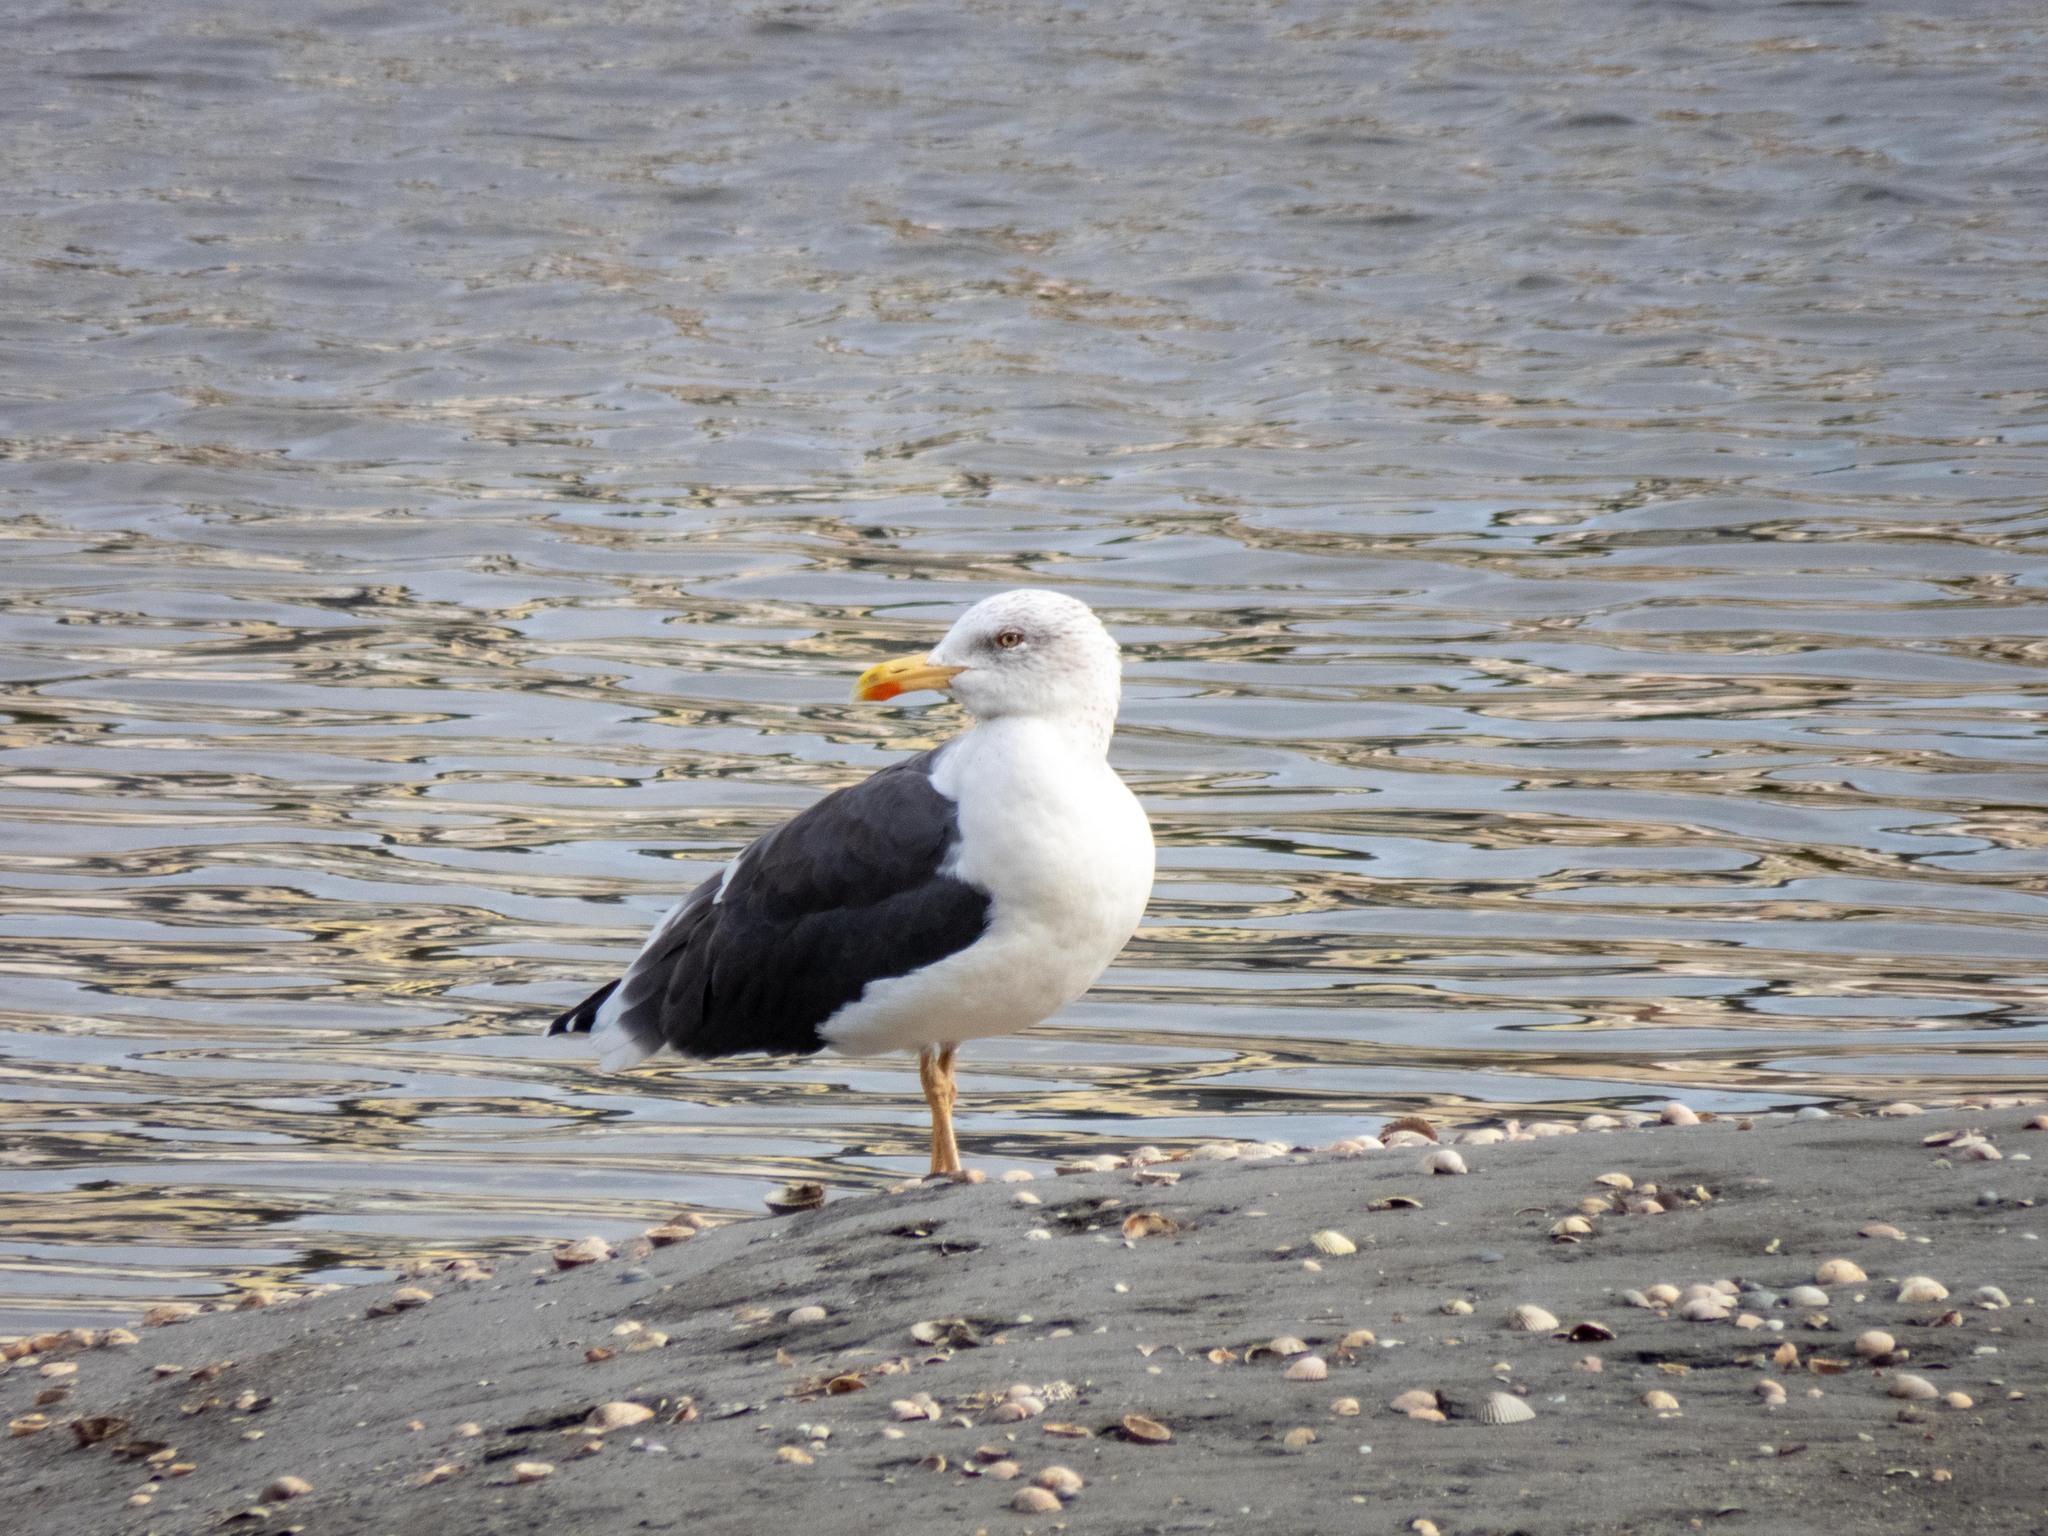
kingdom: Animalia
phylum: Chordata
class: Aves
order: Charadriiformes
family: Laridae
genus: Larus
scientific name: Larus fuscus
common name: Lesser black-backed gull
